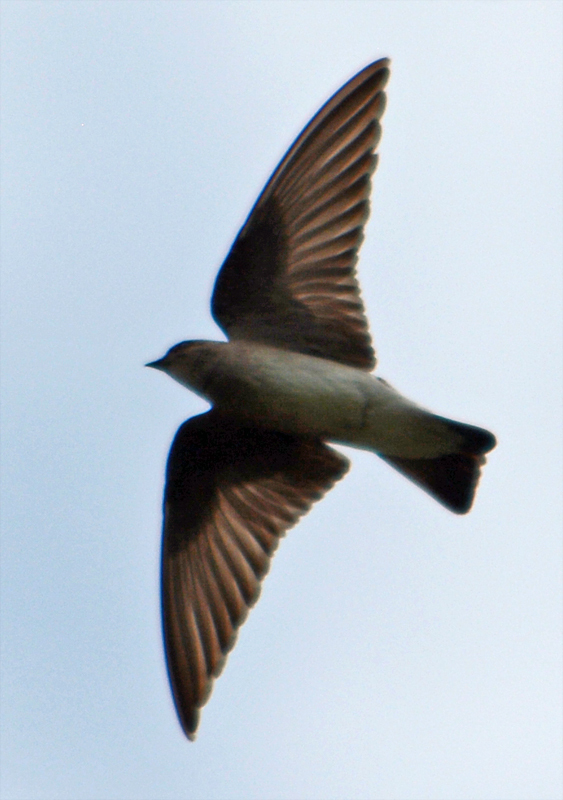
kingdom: Animalia
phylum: Chordata
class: Aves
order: Passeriformes
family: Hirundinidae
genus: Stelgidopteryx
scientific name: Stelgidopteryx serripennis
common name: Northern rough-winged swallow
